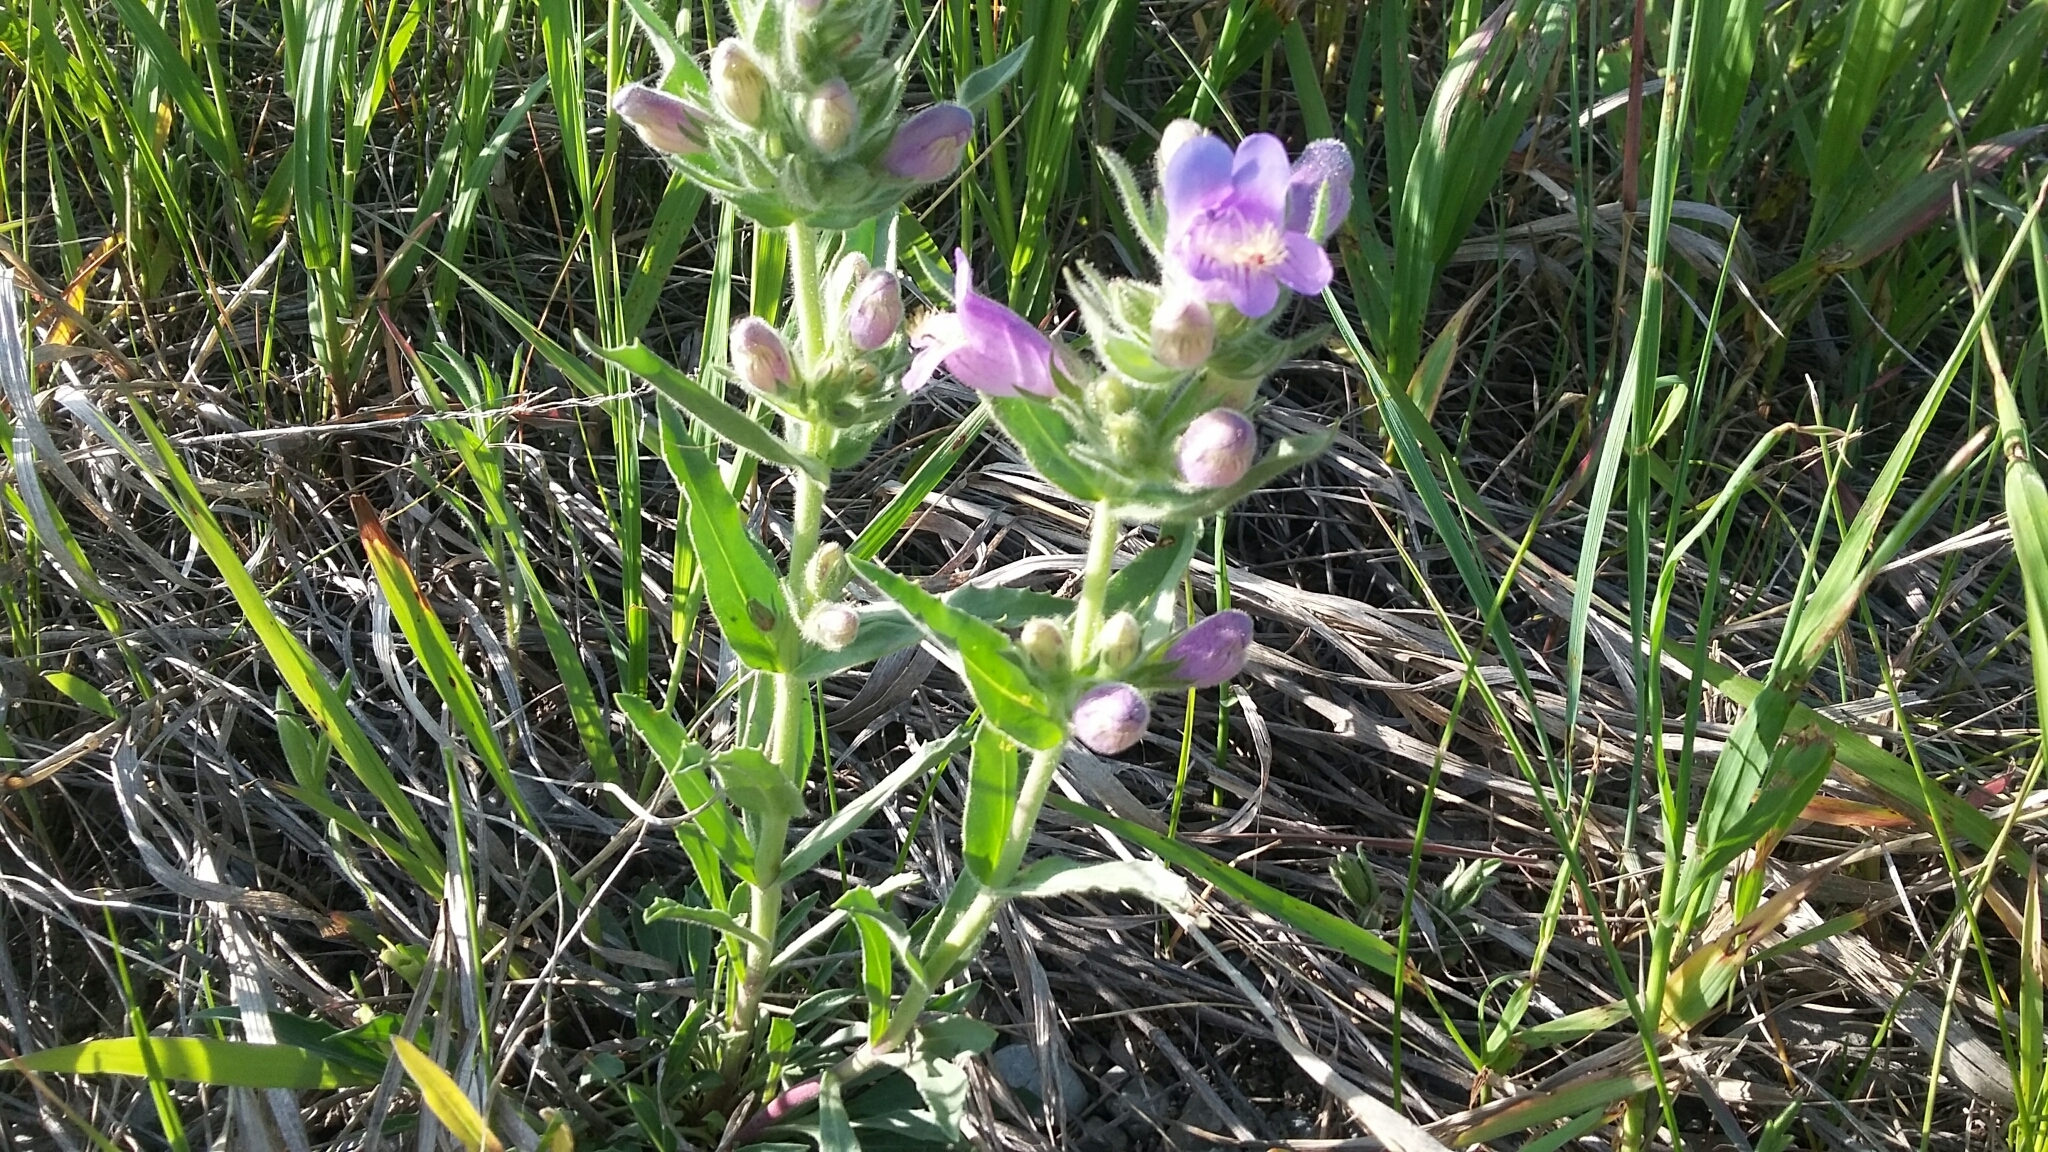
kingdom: Plantae
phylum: Tracheophyta
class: Magnoliopsida
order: Lamiales
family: Plantaginaceae
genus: Penstemon
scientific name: Penstemon eriantherus
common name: Crested beardtongue
